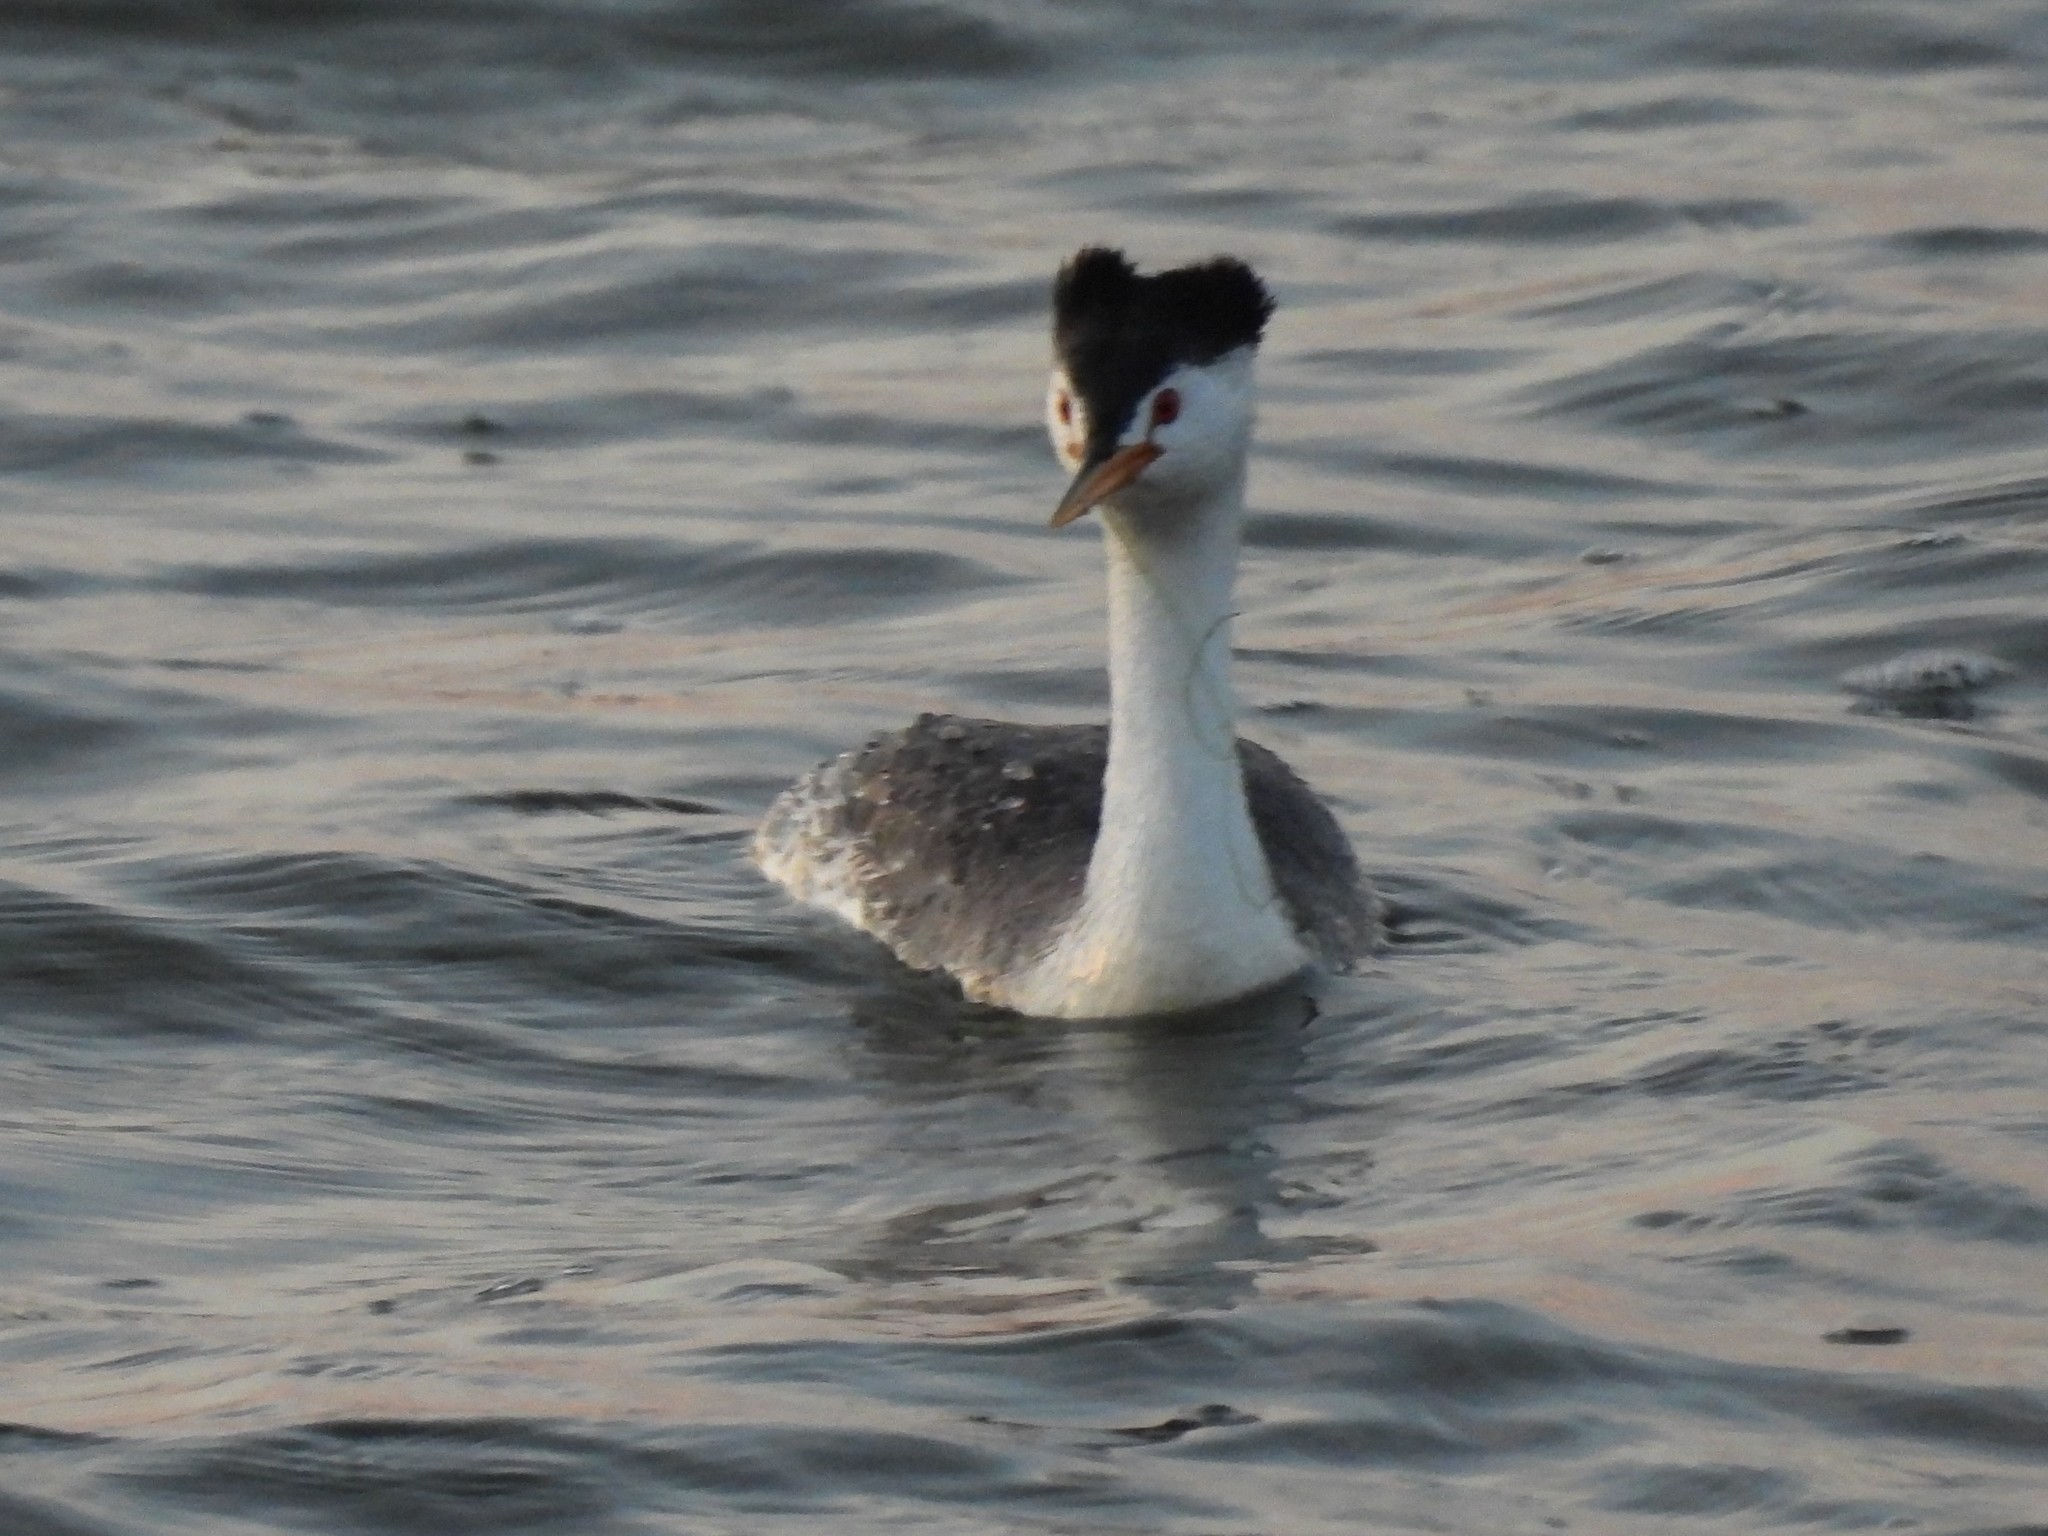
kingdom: Animalia
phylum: Chordata
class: Aves
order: Podicipediformes
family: Podicipedidae
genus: Aechmophorus
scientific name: Aechmophorus clarkii
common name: Clark's grebe
